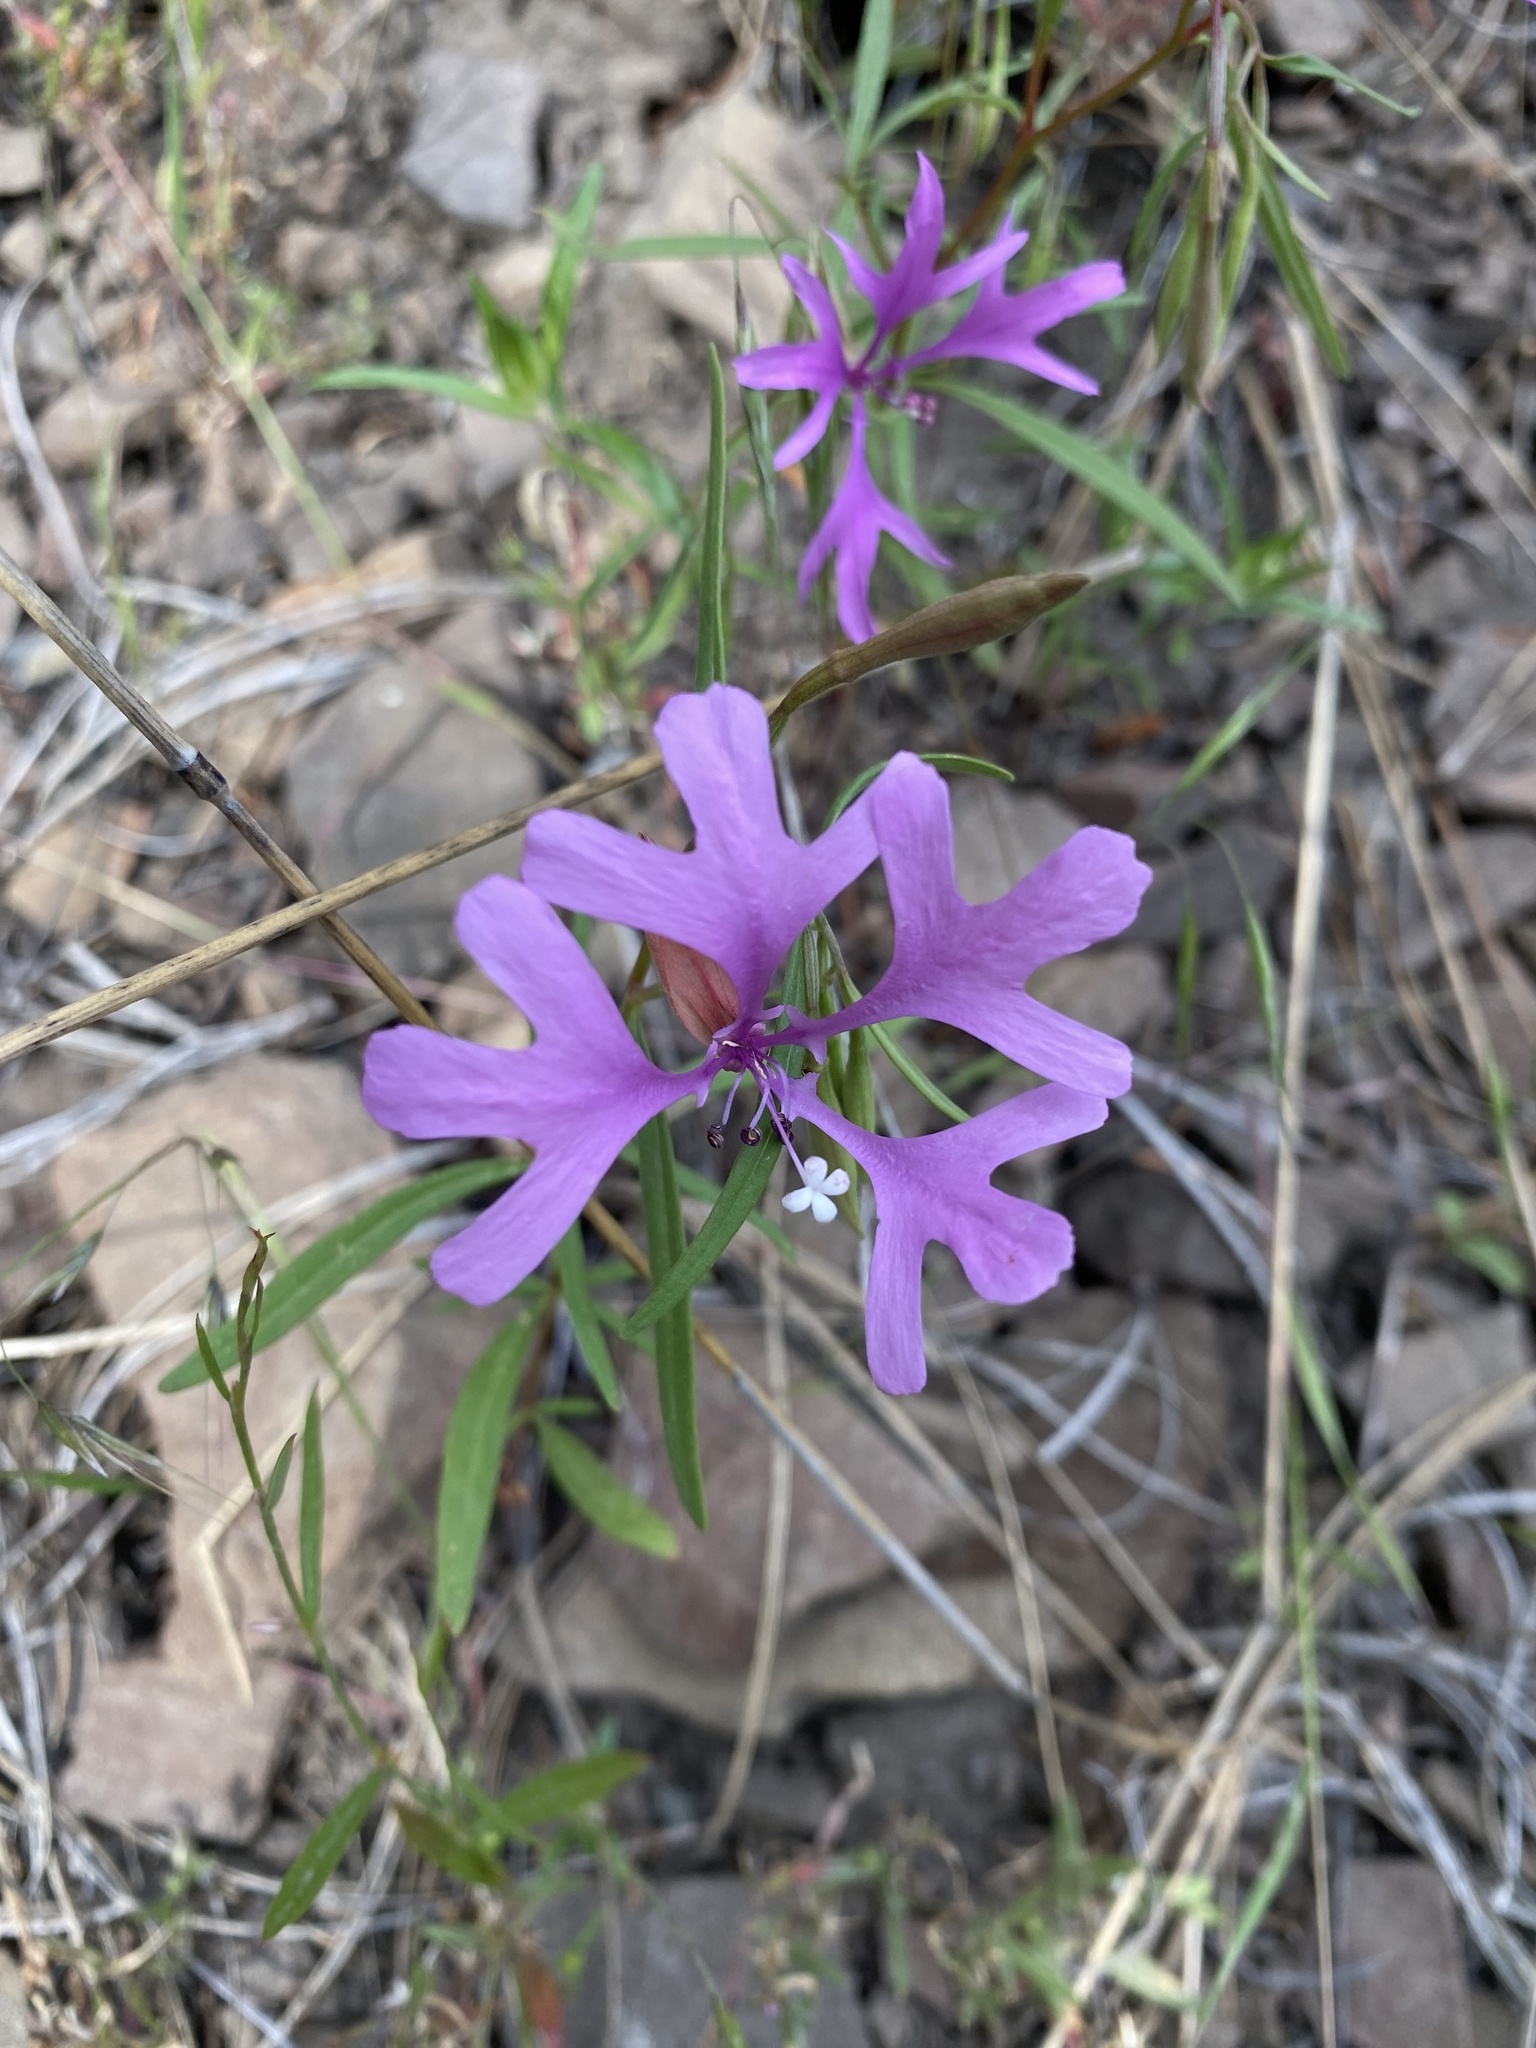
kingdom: Plantae
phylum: Tracheophyta
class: Magnoliopsida
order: Myrtales
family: Onagraceae
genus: Clarkia
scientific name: Clarkia pulchella
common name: Deer horn
